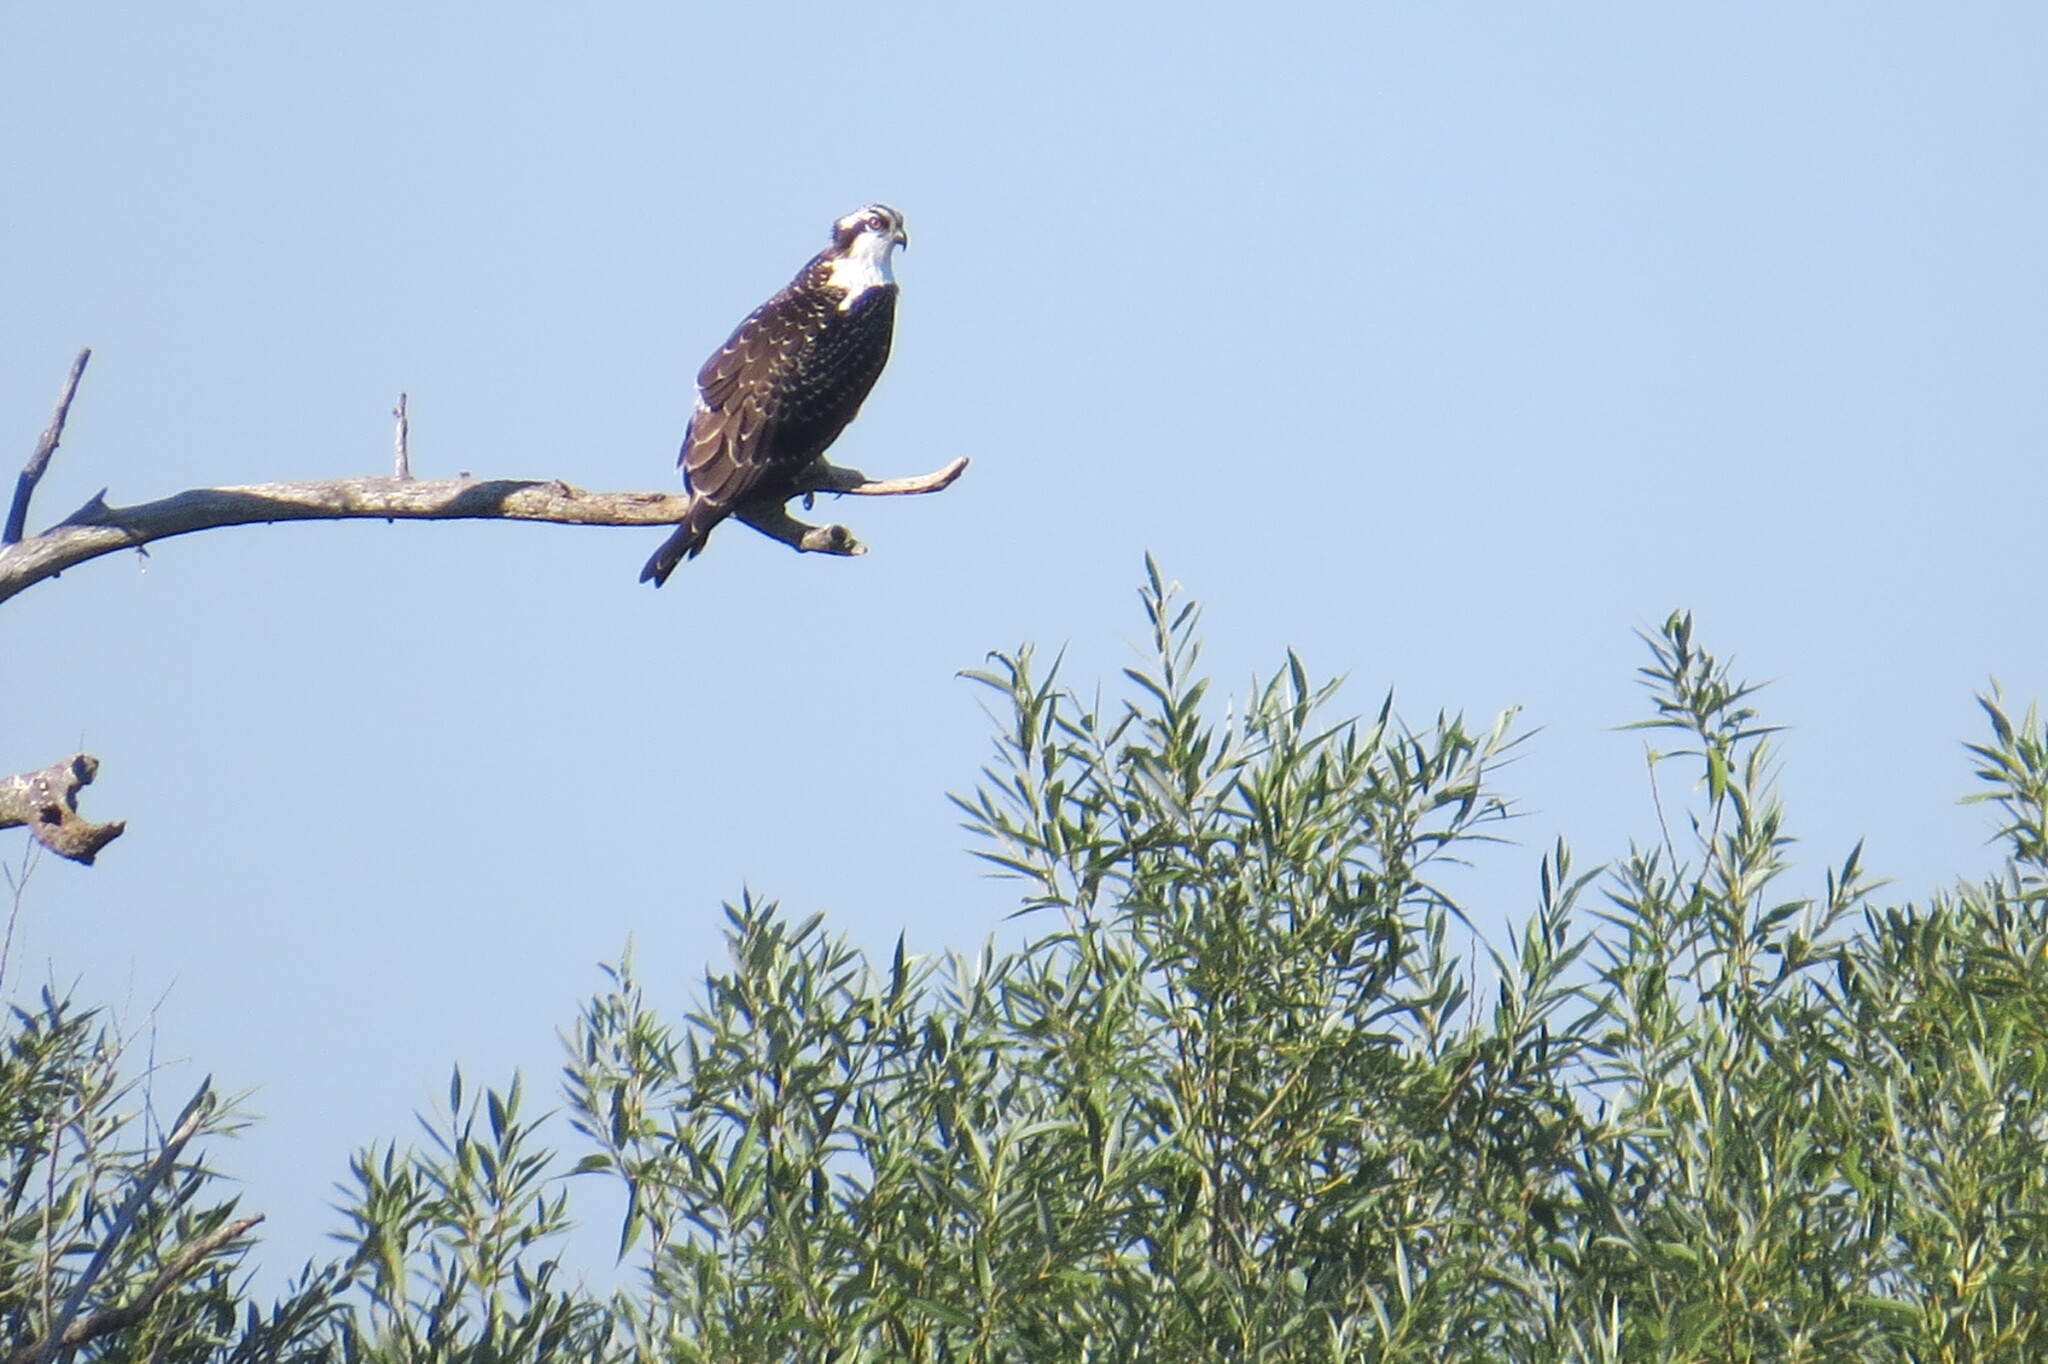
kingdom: Animalia
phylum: Chordata
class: Aves
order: Accipitriformes
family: Pandionidae
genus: Pandion
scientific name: Pandion haliaetus
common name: Osprey
